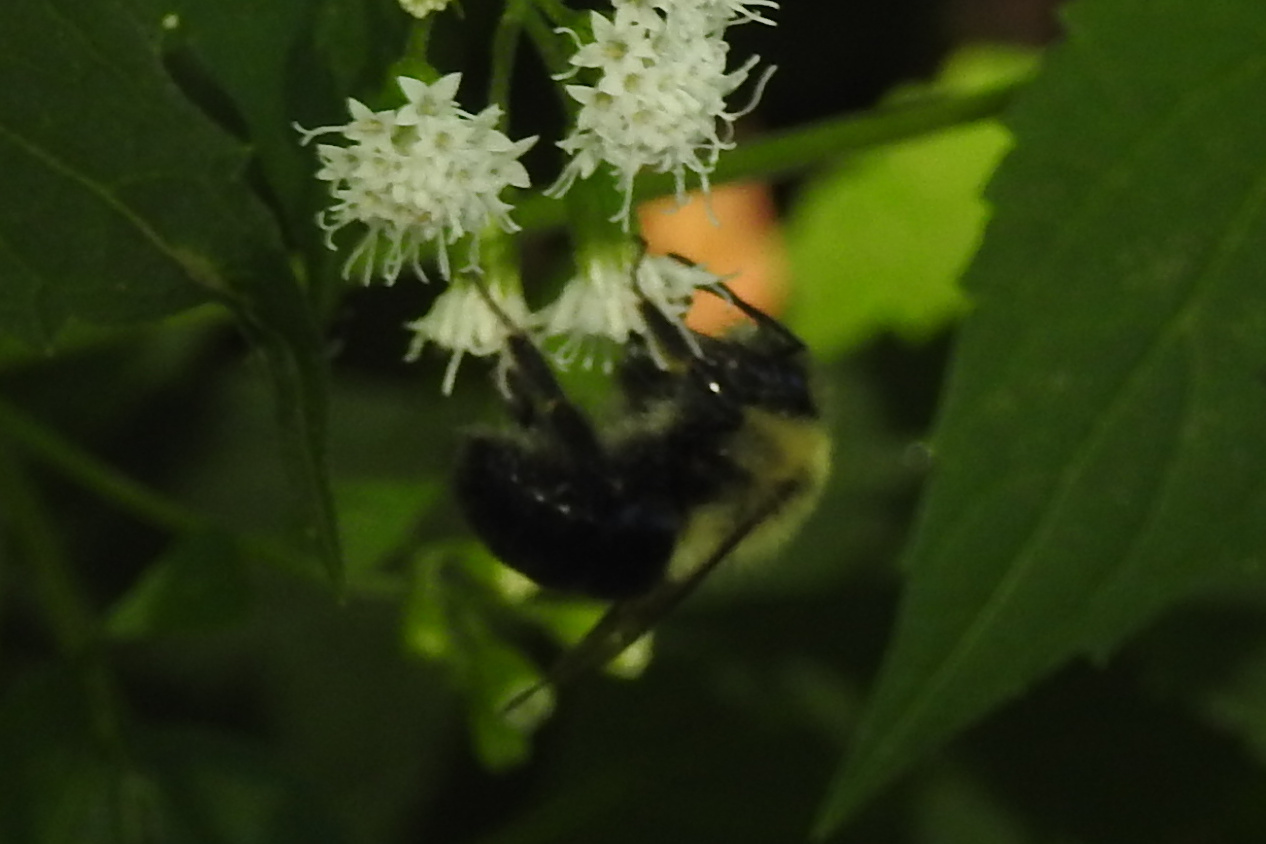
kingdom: Animalia
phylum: Arthropoda
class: Insecta
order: Hymenoptera
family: Apidae
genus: Bombus
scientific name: Bombus impatiens
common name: Common eastern bumble bee
